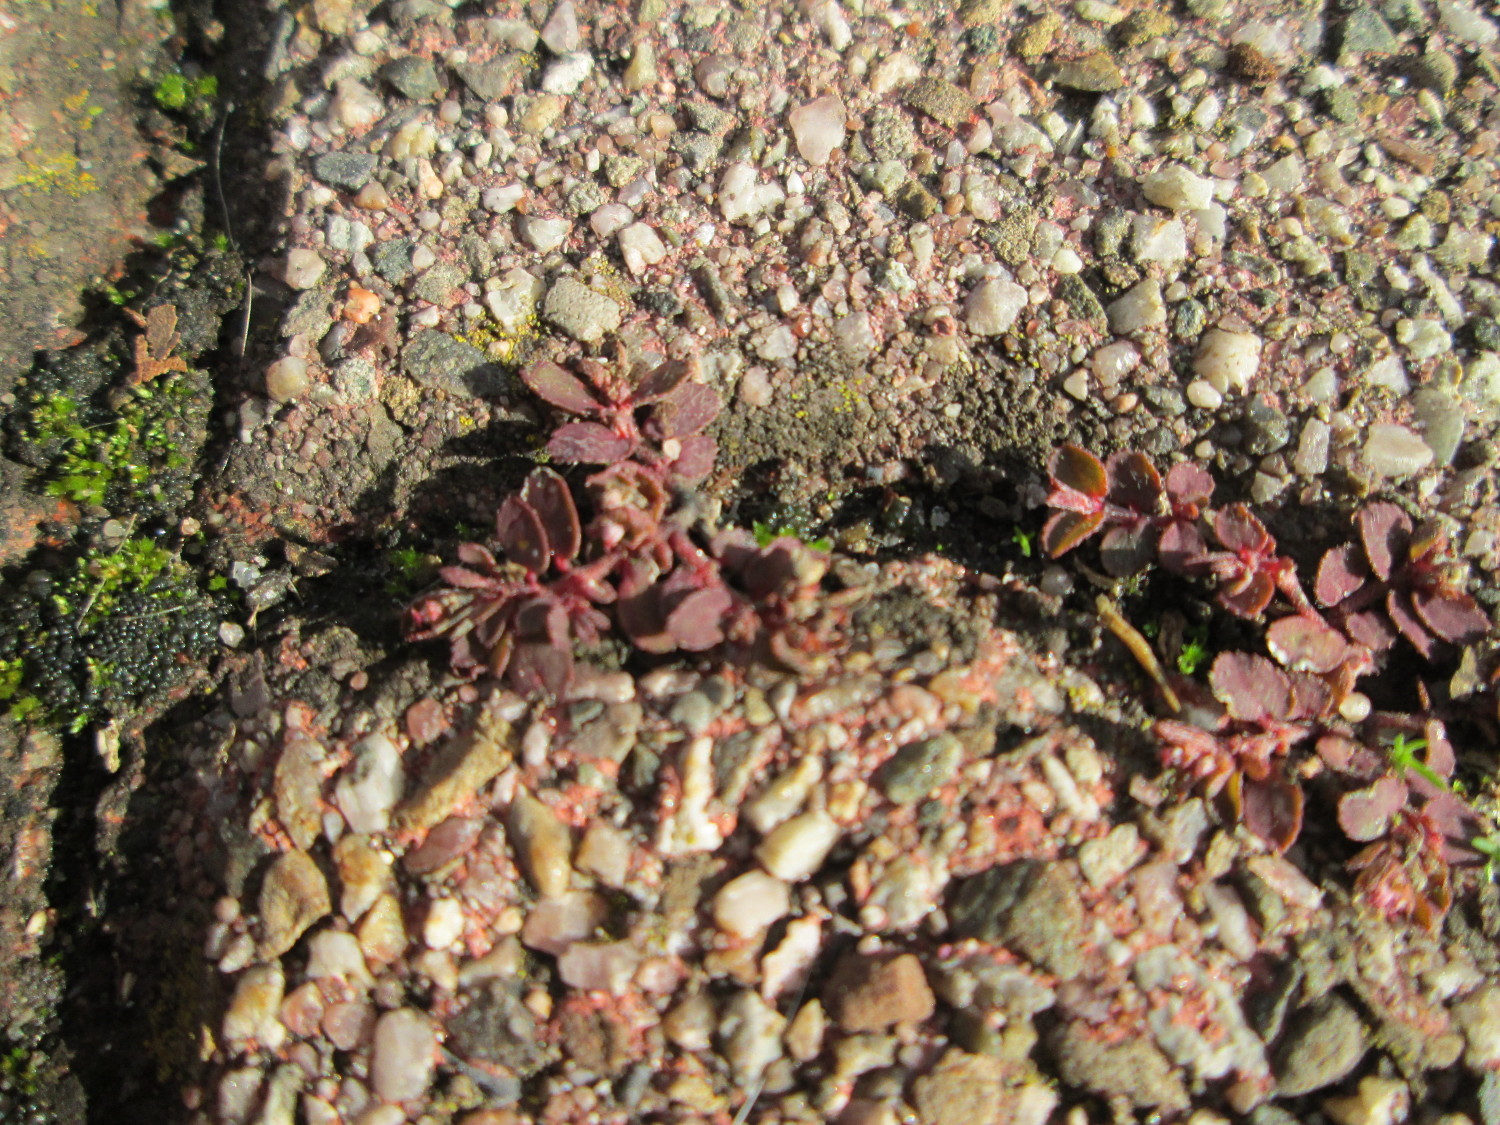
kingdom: Plantae
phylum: Tracheophyta
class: Magnoliopsida
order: Malpighiales
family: Euphorbiaceae
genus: Euphorbia
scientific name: Euphorbia maculata
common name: Spotted spurge
